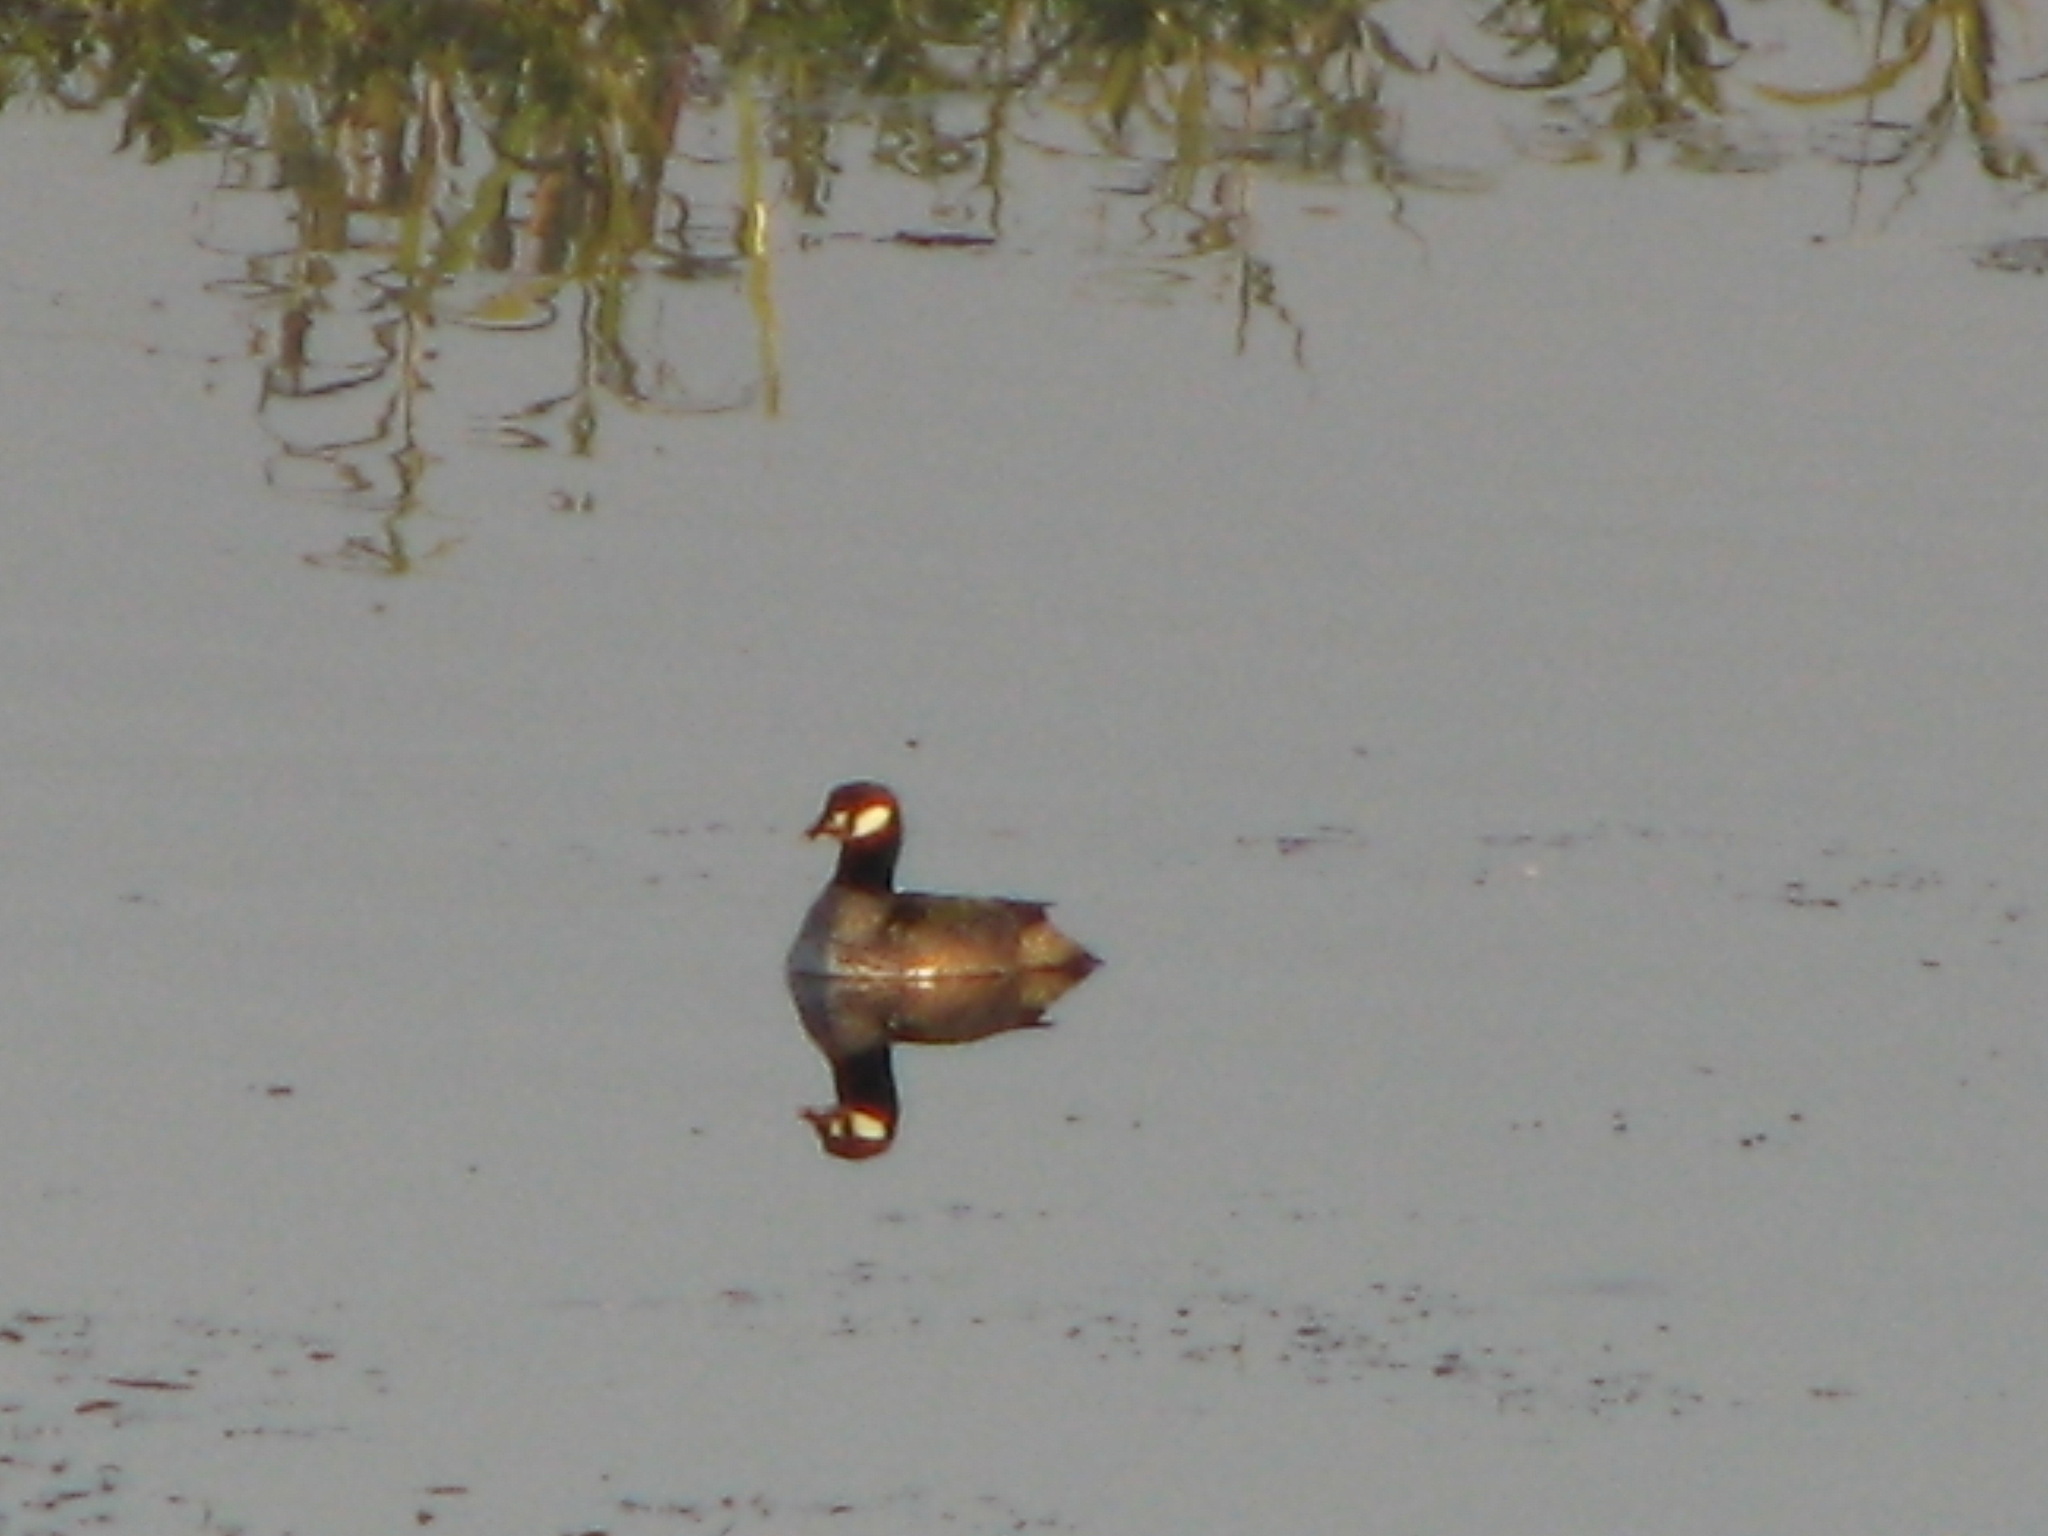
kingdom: Animalia
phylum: Chordata
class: Aves
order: Anseriformes
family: Anatidae
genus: Nettapus
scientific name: Nettapus pulchellus
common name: Green pygmy-goose
